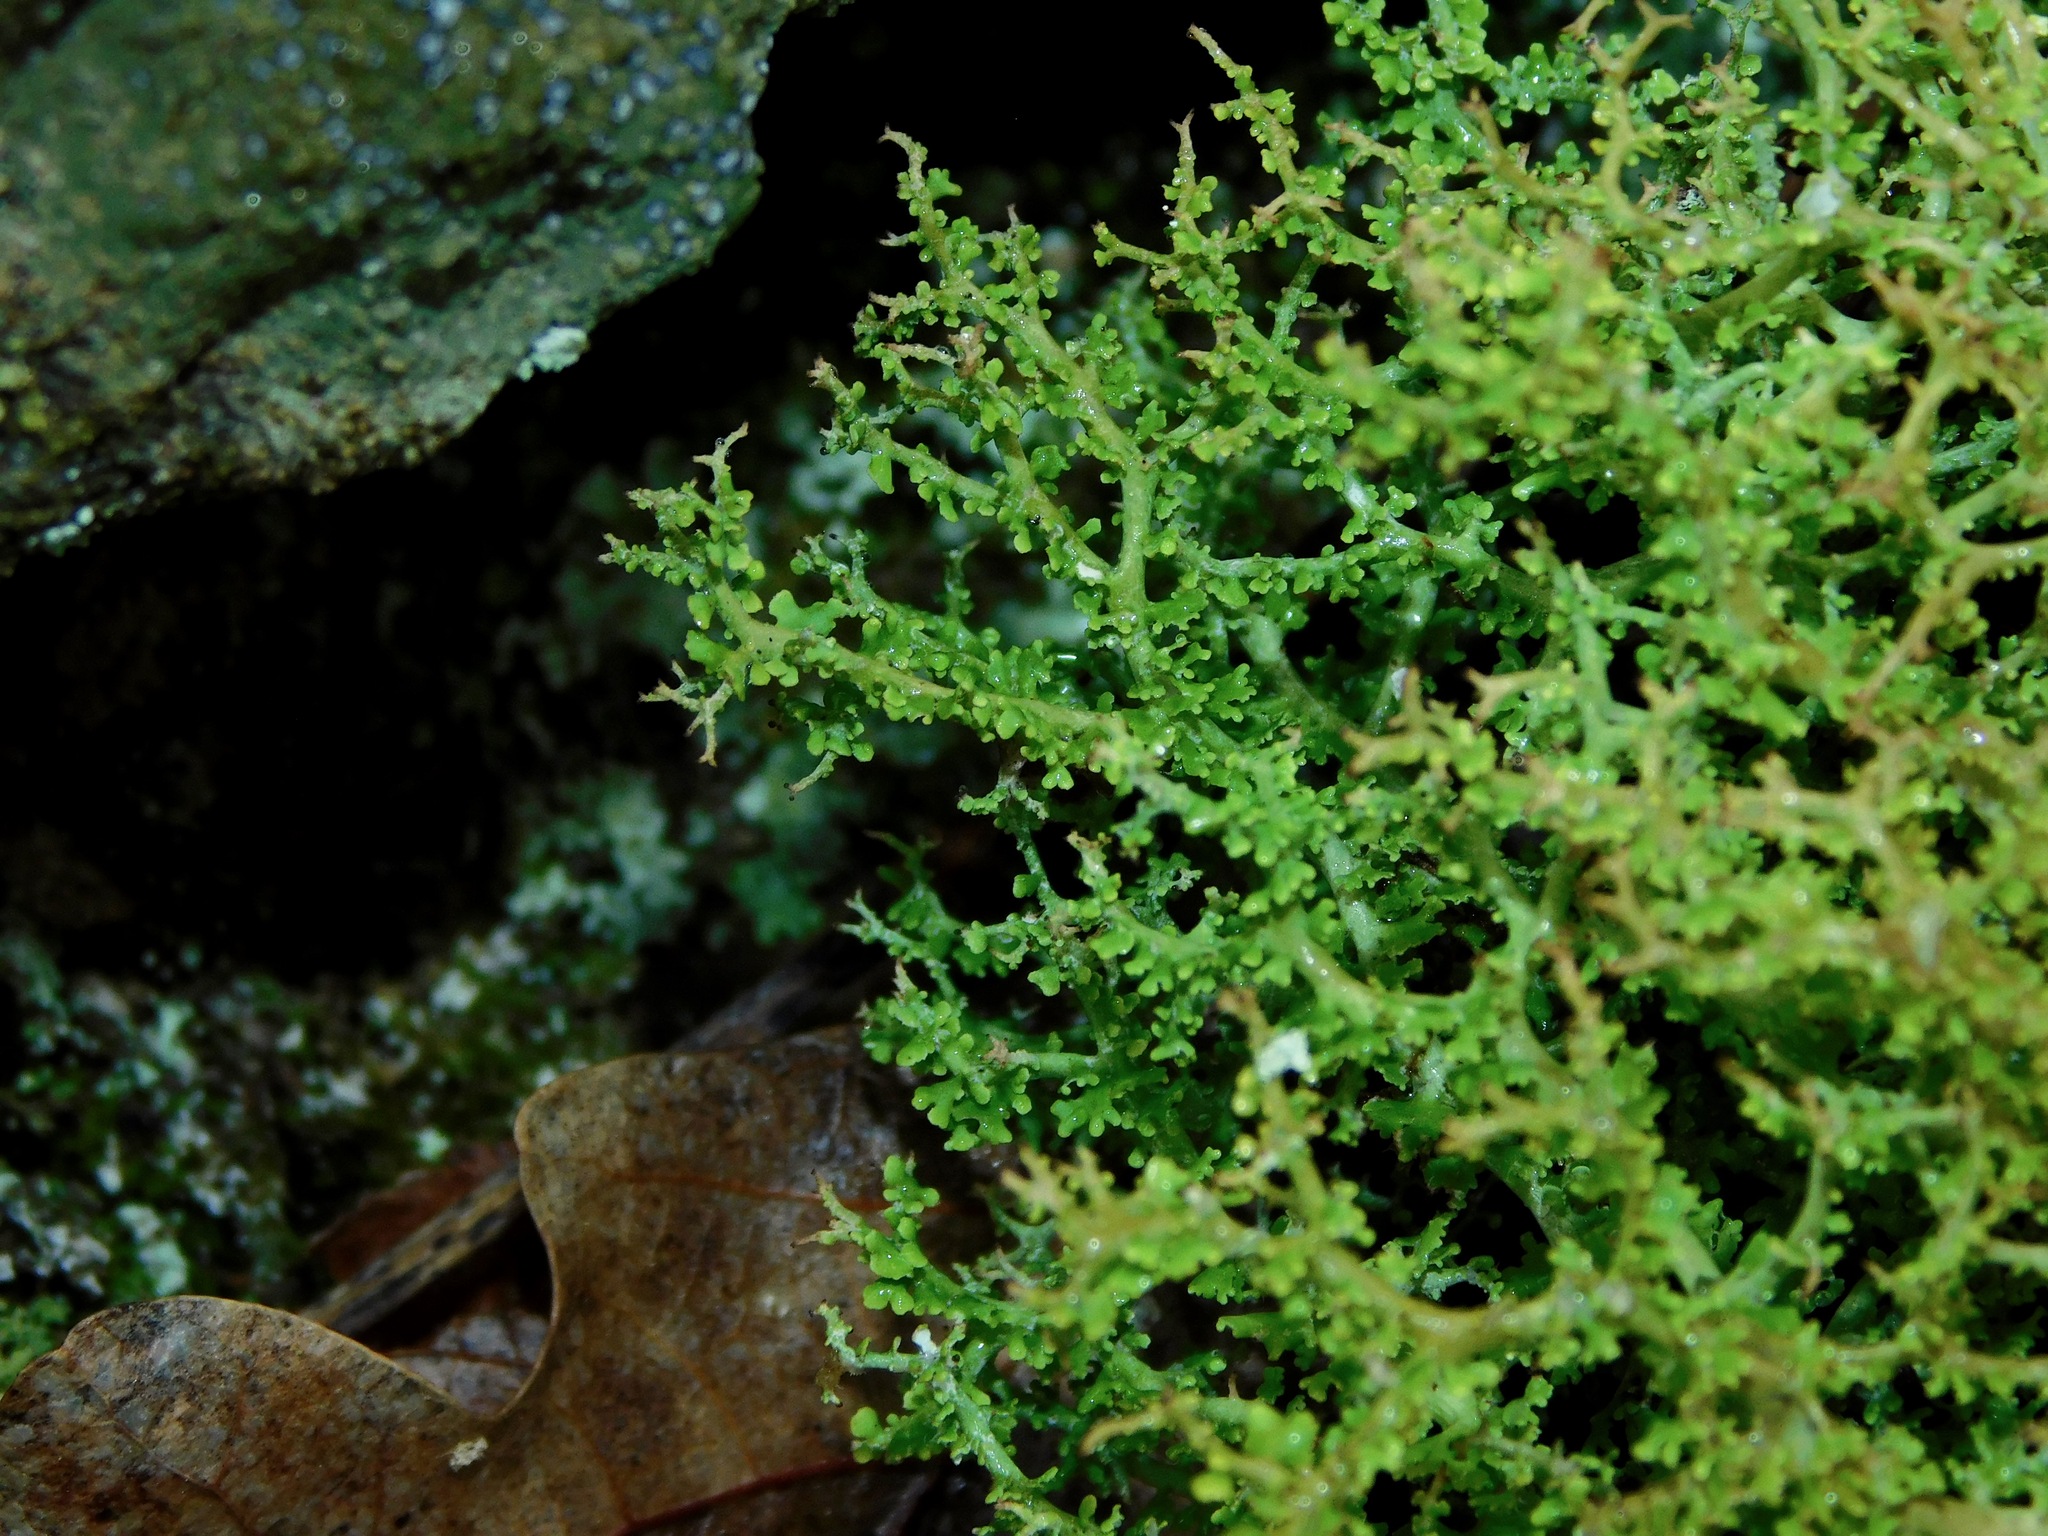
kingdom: Fungi
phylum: Ascomycota
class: Lecanoromycetes
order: Lecanorales
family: Cladoniaceae
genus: Cladonia
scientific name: Cladonia squamosa
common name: Dragon horn
